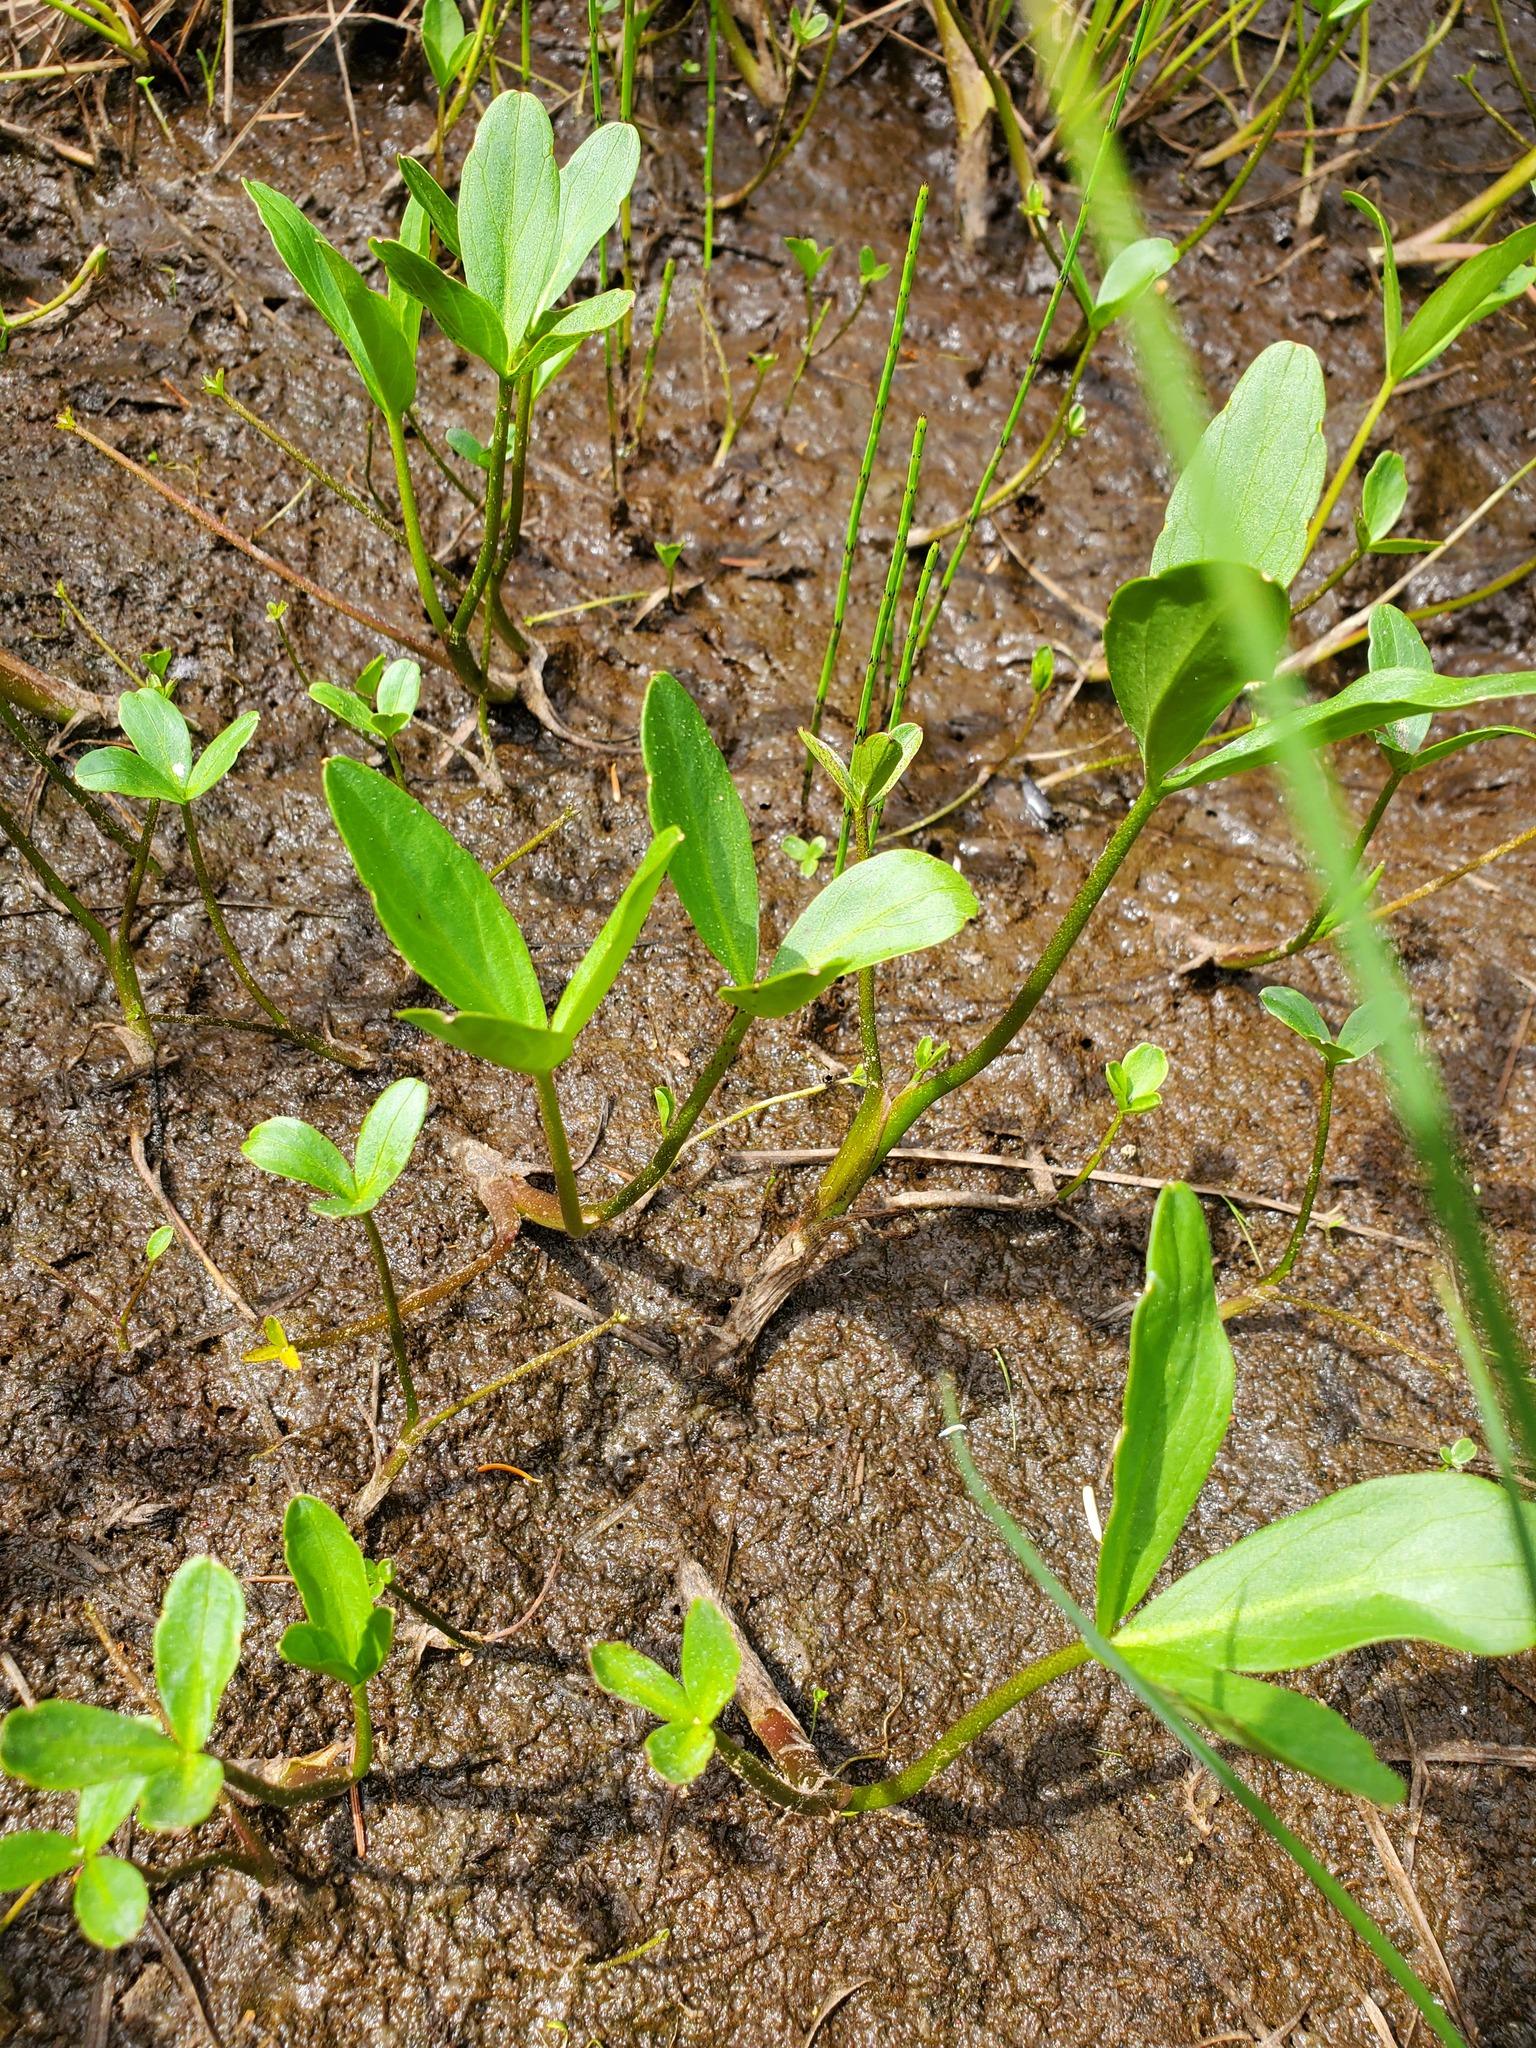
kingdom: Plantae
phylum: Tracheophyta
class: Magnoliopsida
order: Asterales
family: Menyanthaceae
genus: Menyanthes
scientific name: Menyanthes trifoliata
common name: Bogbean
